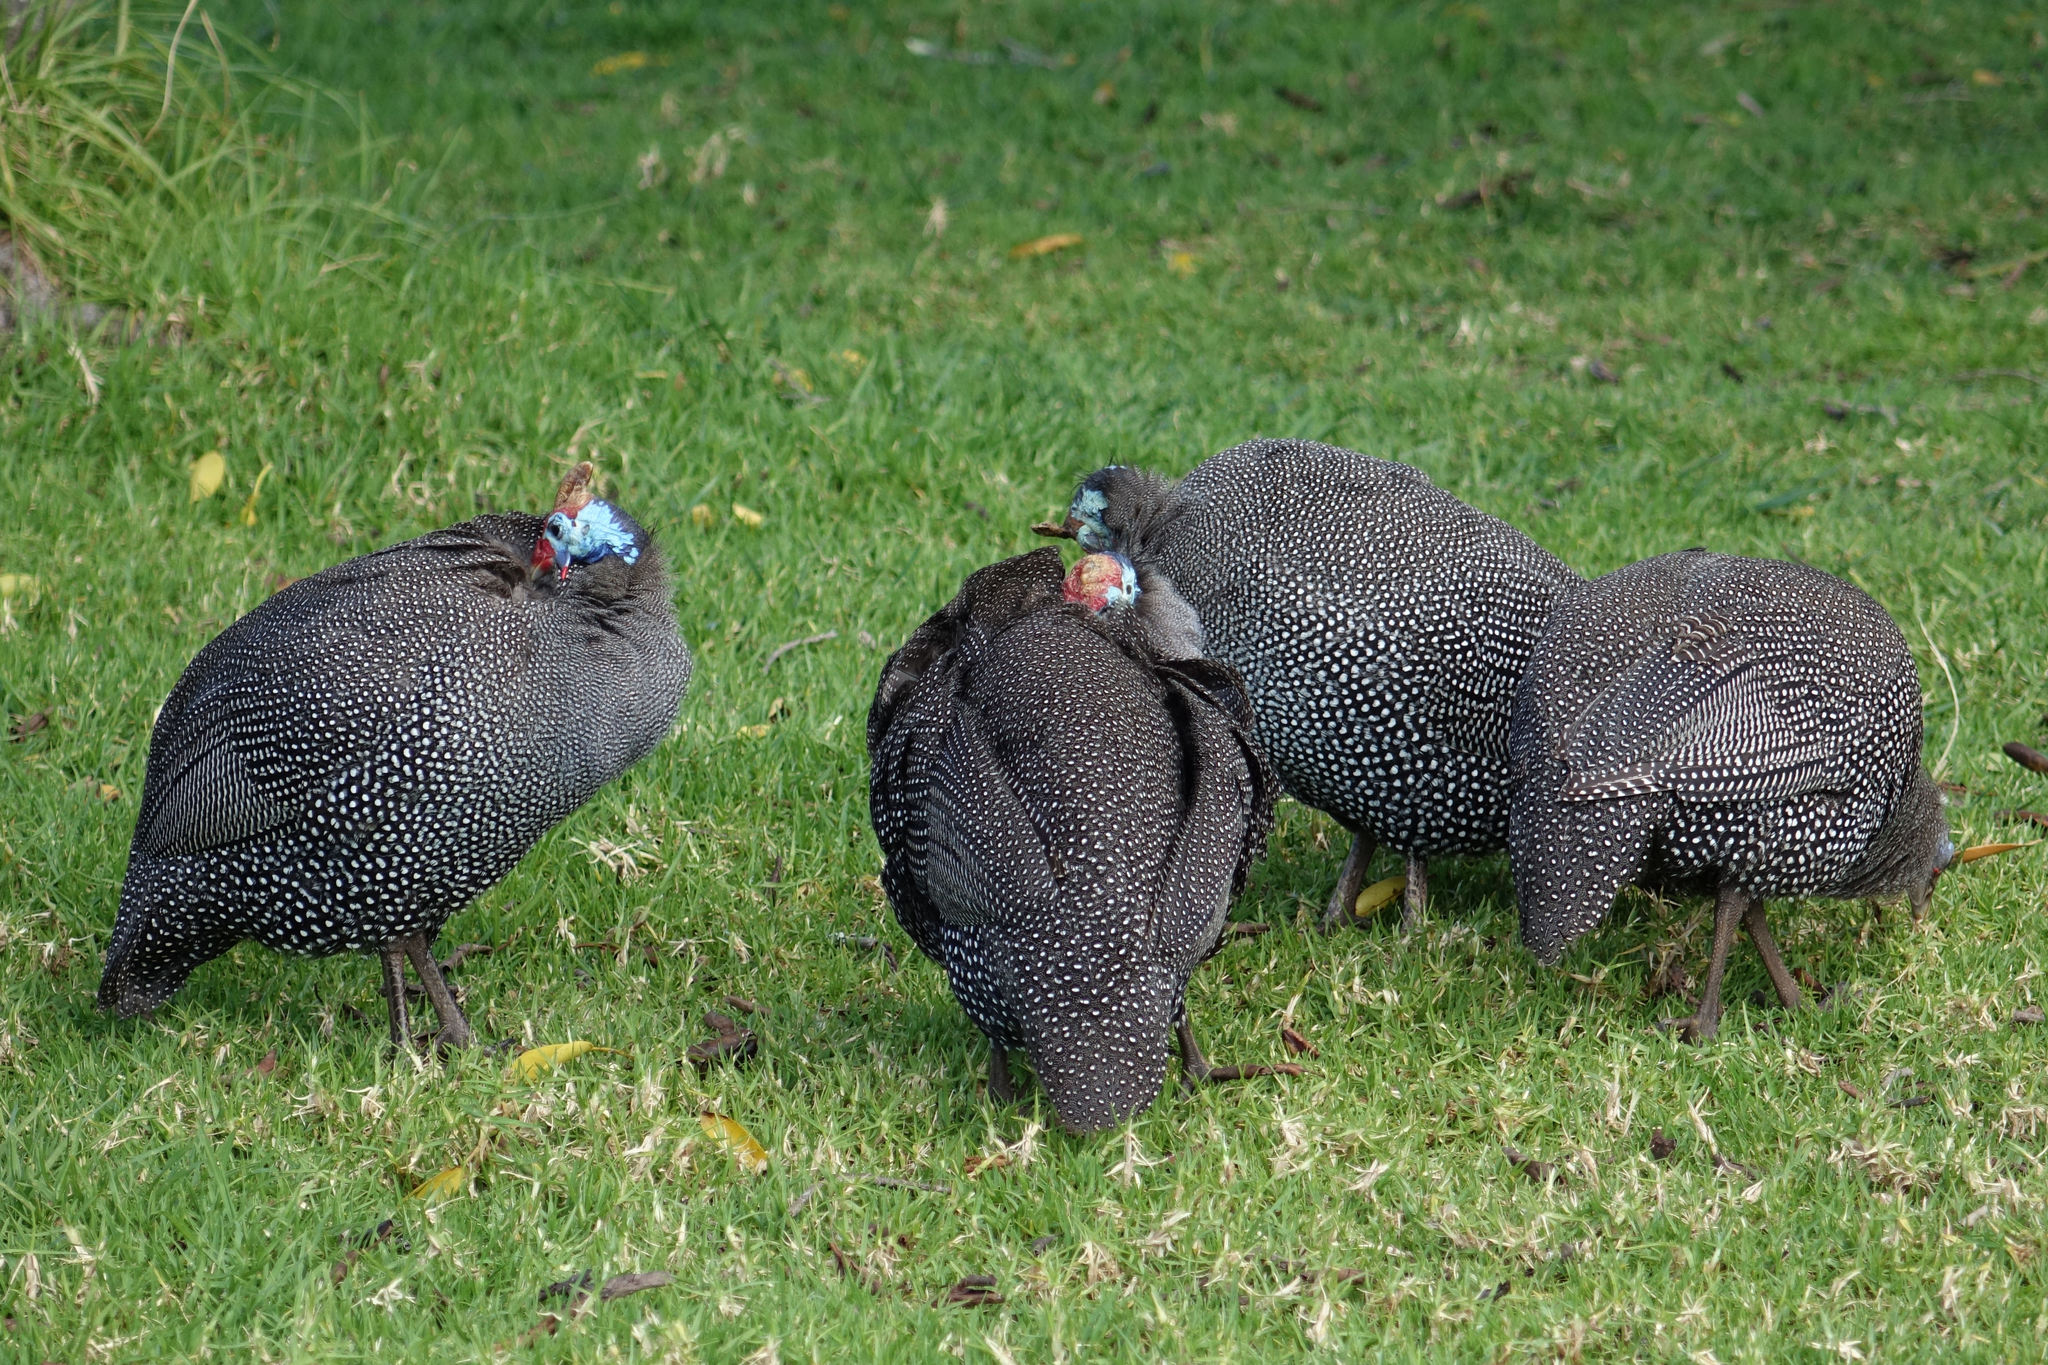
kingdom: Animalia
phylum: Chordata
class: Aves
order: Galliformes
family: Numididae
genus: Numida
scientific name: Numida meleagris
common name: Helmeted guineafowl
